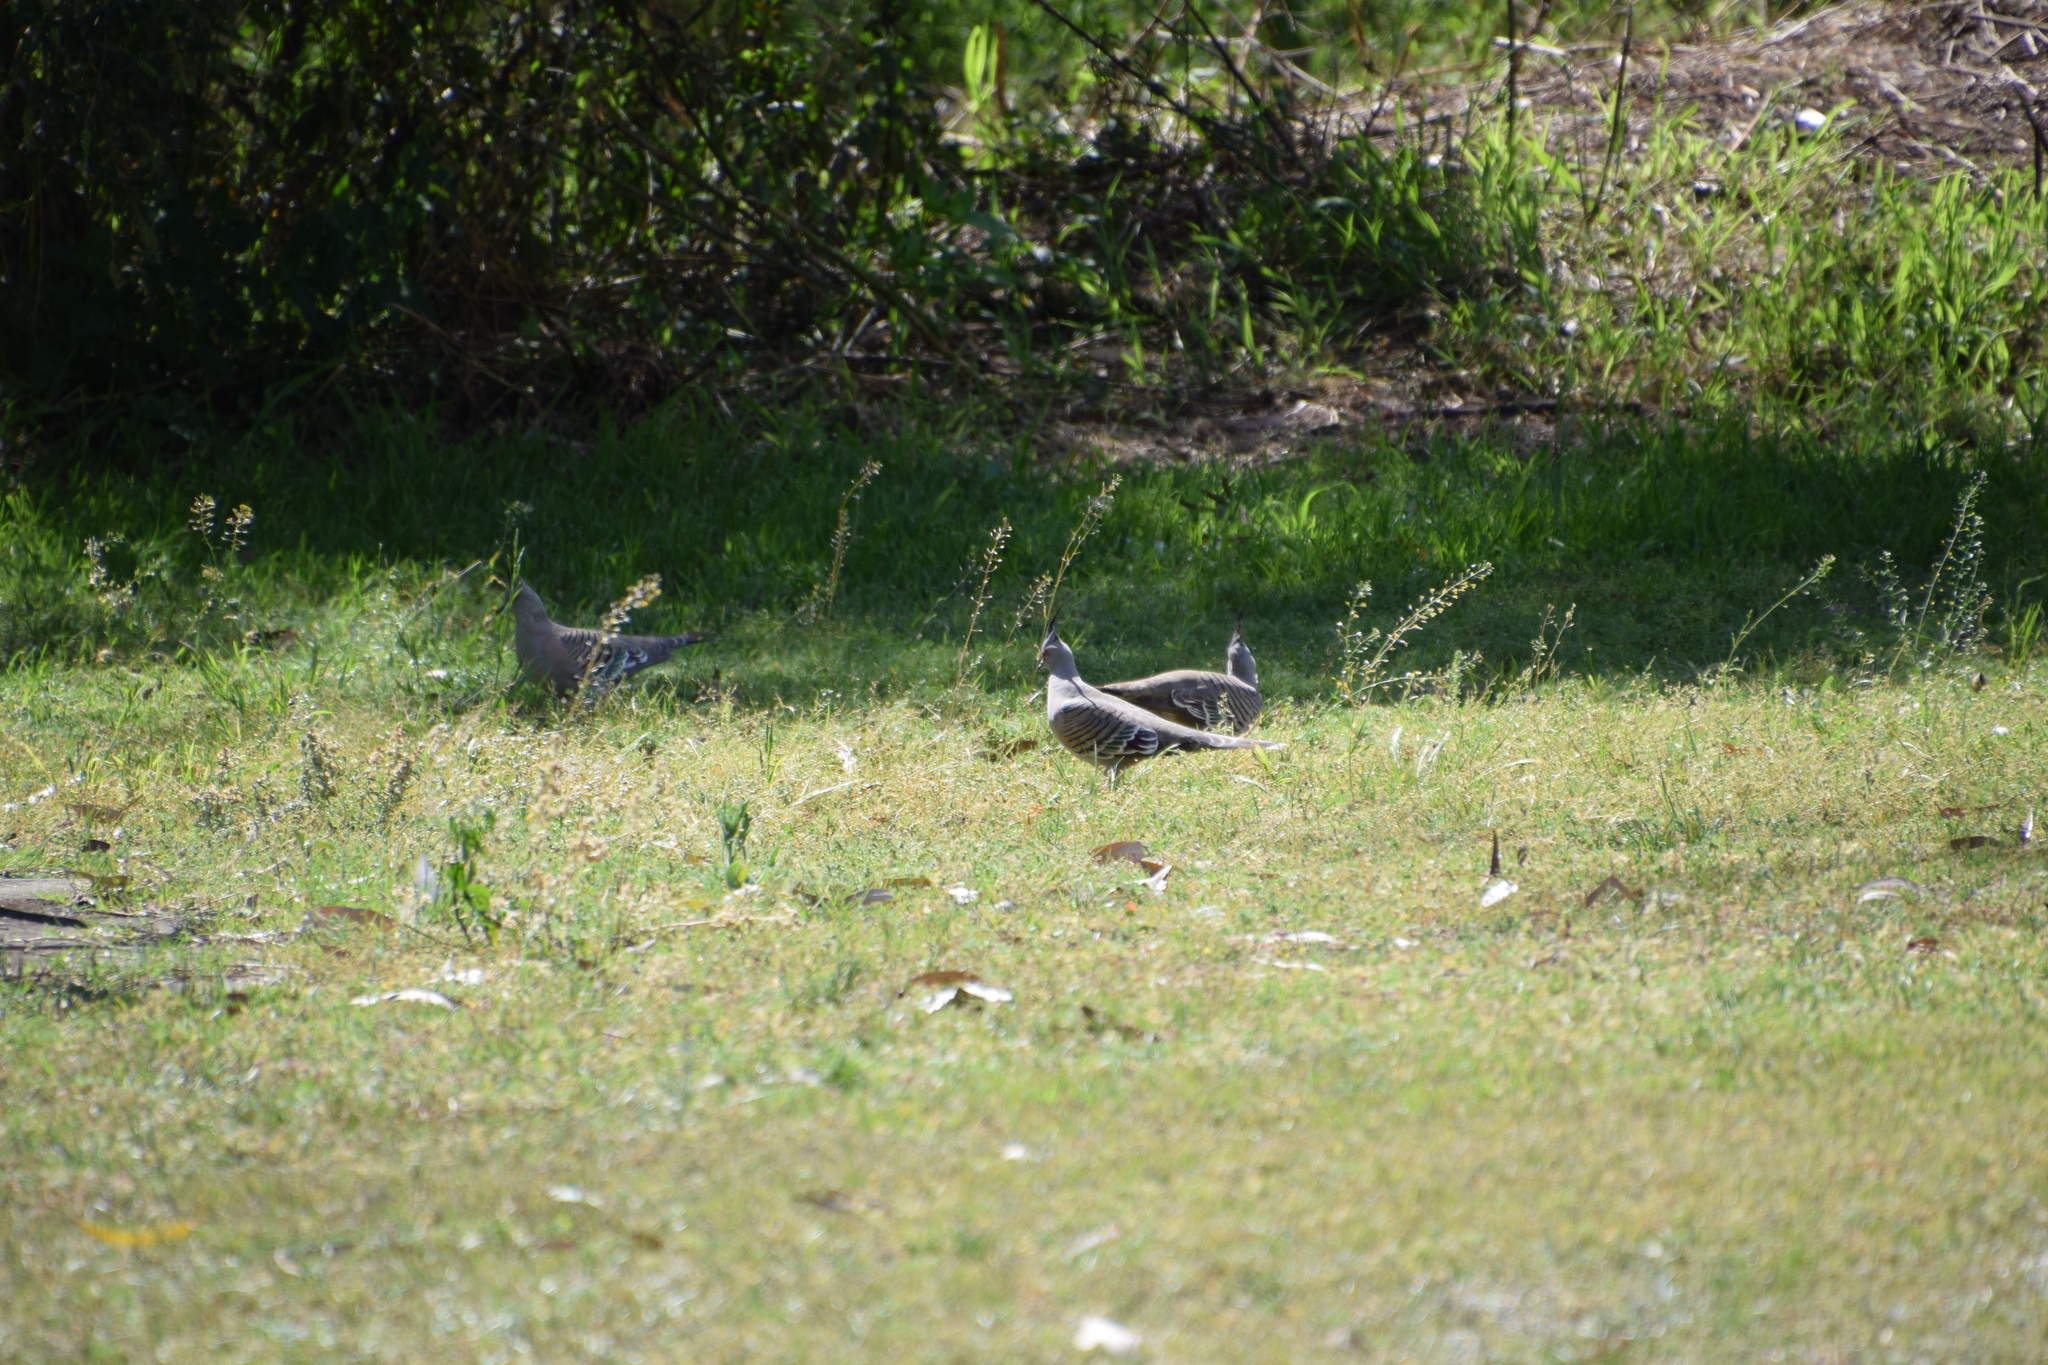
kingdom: Animalia
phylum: Chordata
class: Aves
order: Columbiformes
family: Columbidae
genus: Ocyphaps
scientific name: Ocyphaps lophotes
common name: Crested pigeon
